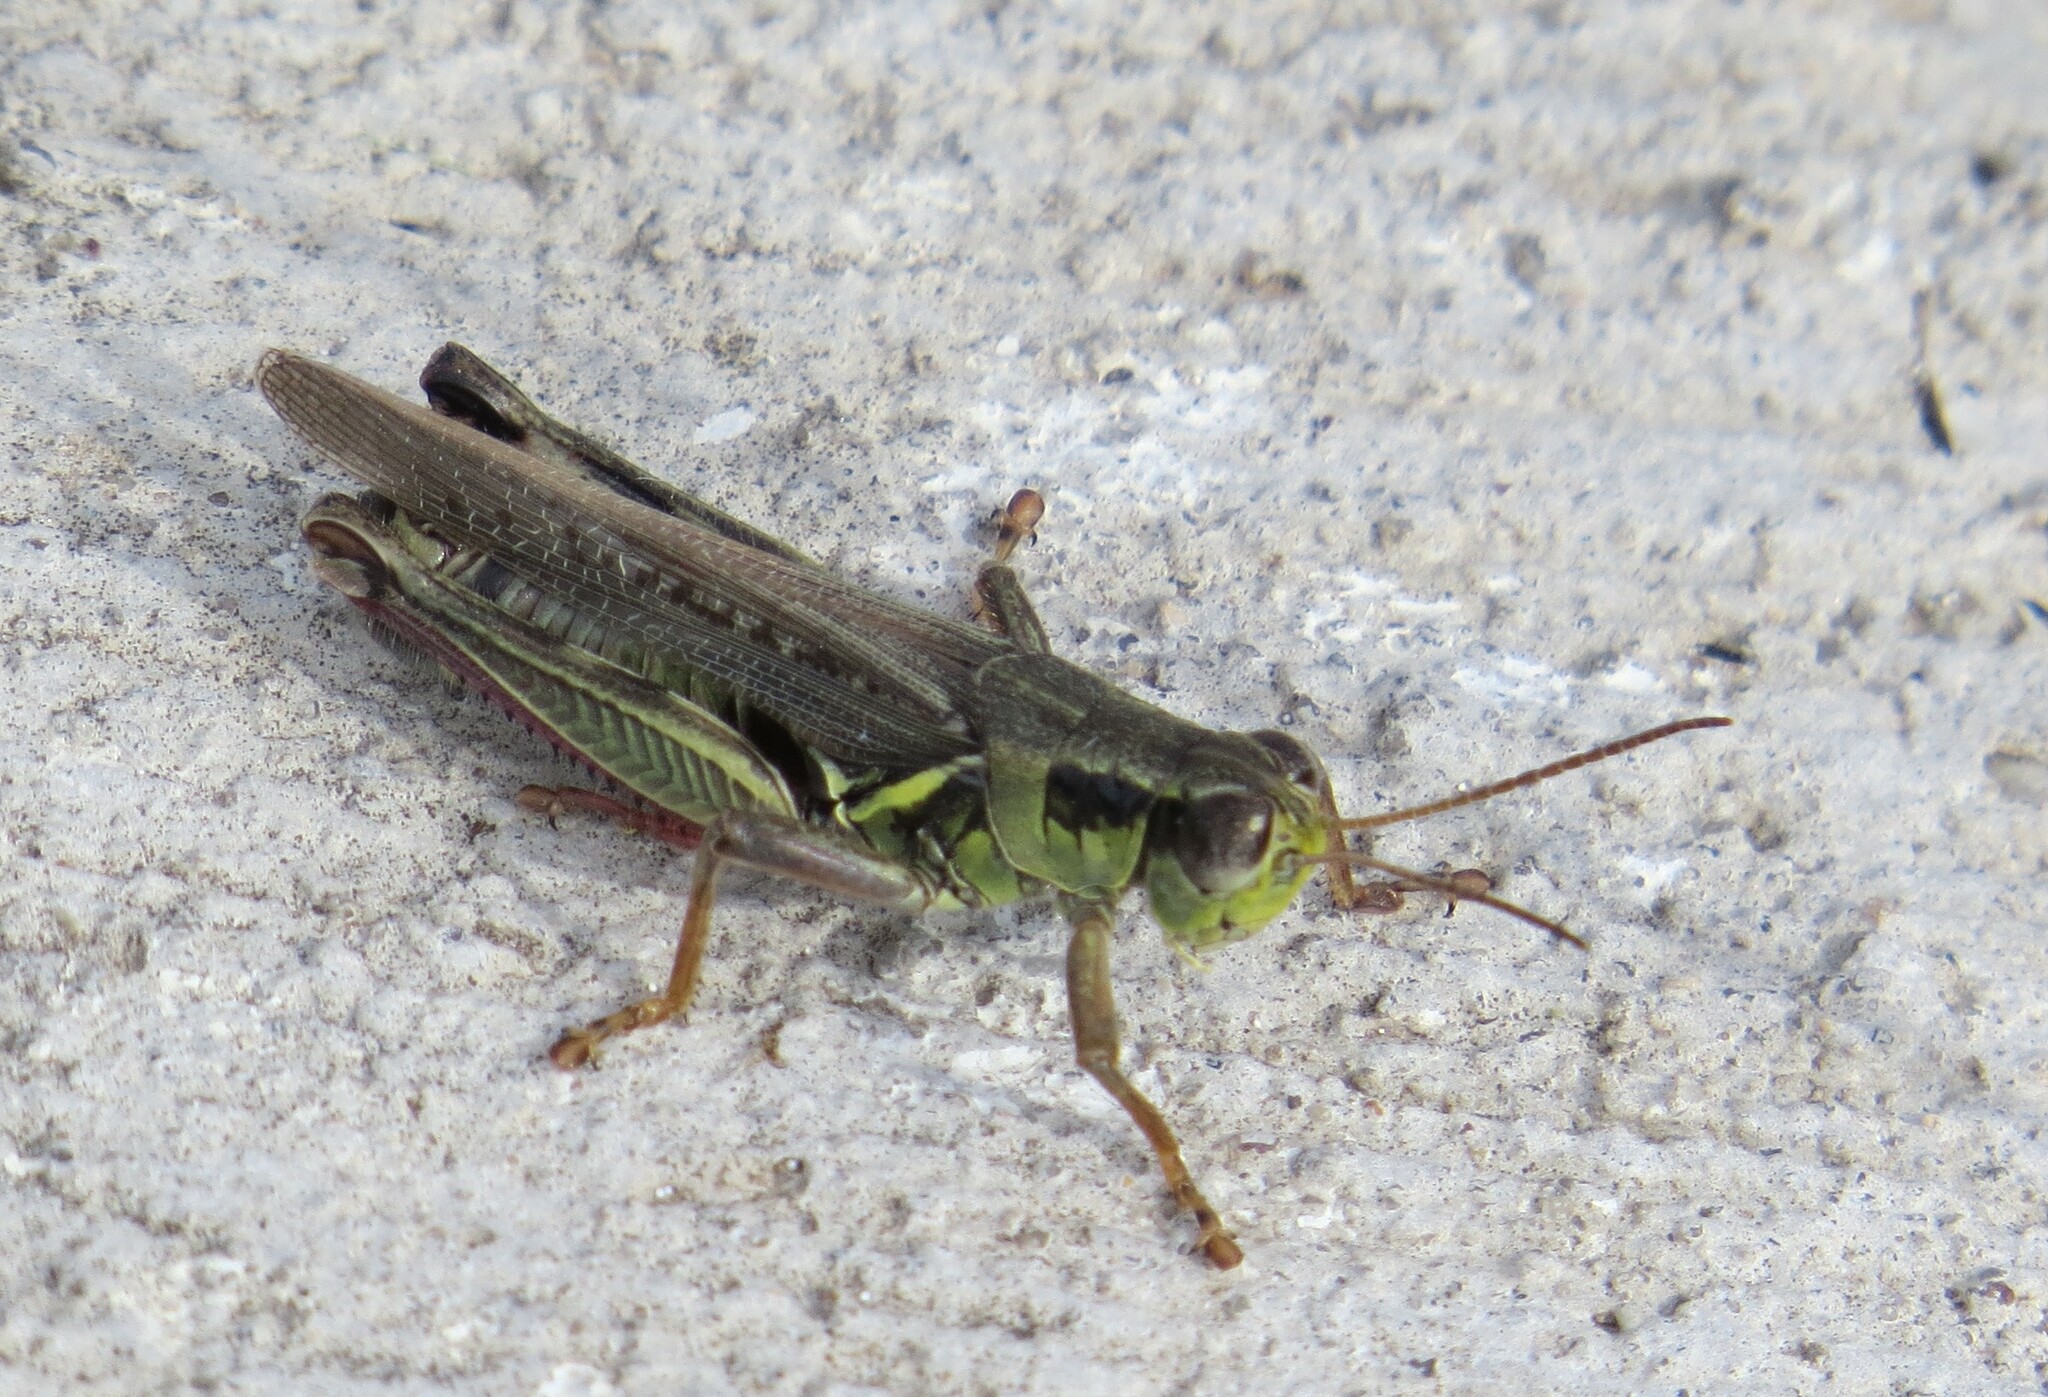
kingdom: Animalia
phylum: Arthropoda
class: Insecta
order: Orthoptera
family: Acrididae
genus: Melanoplus
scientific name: Melanoplus femurrubrum
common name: Red-legged grasshopper
